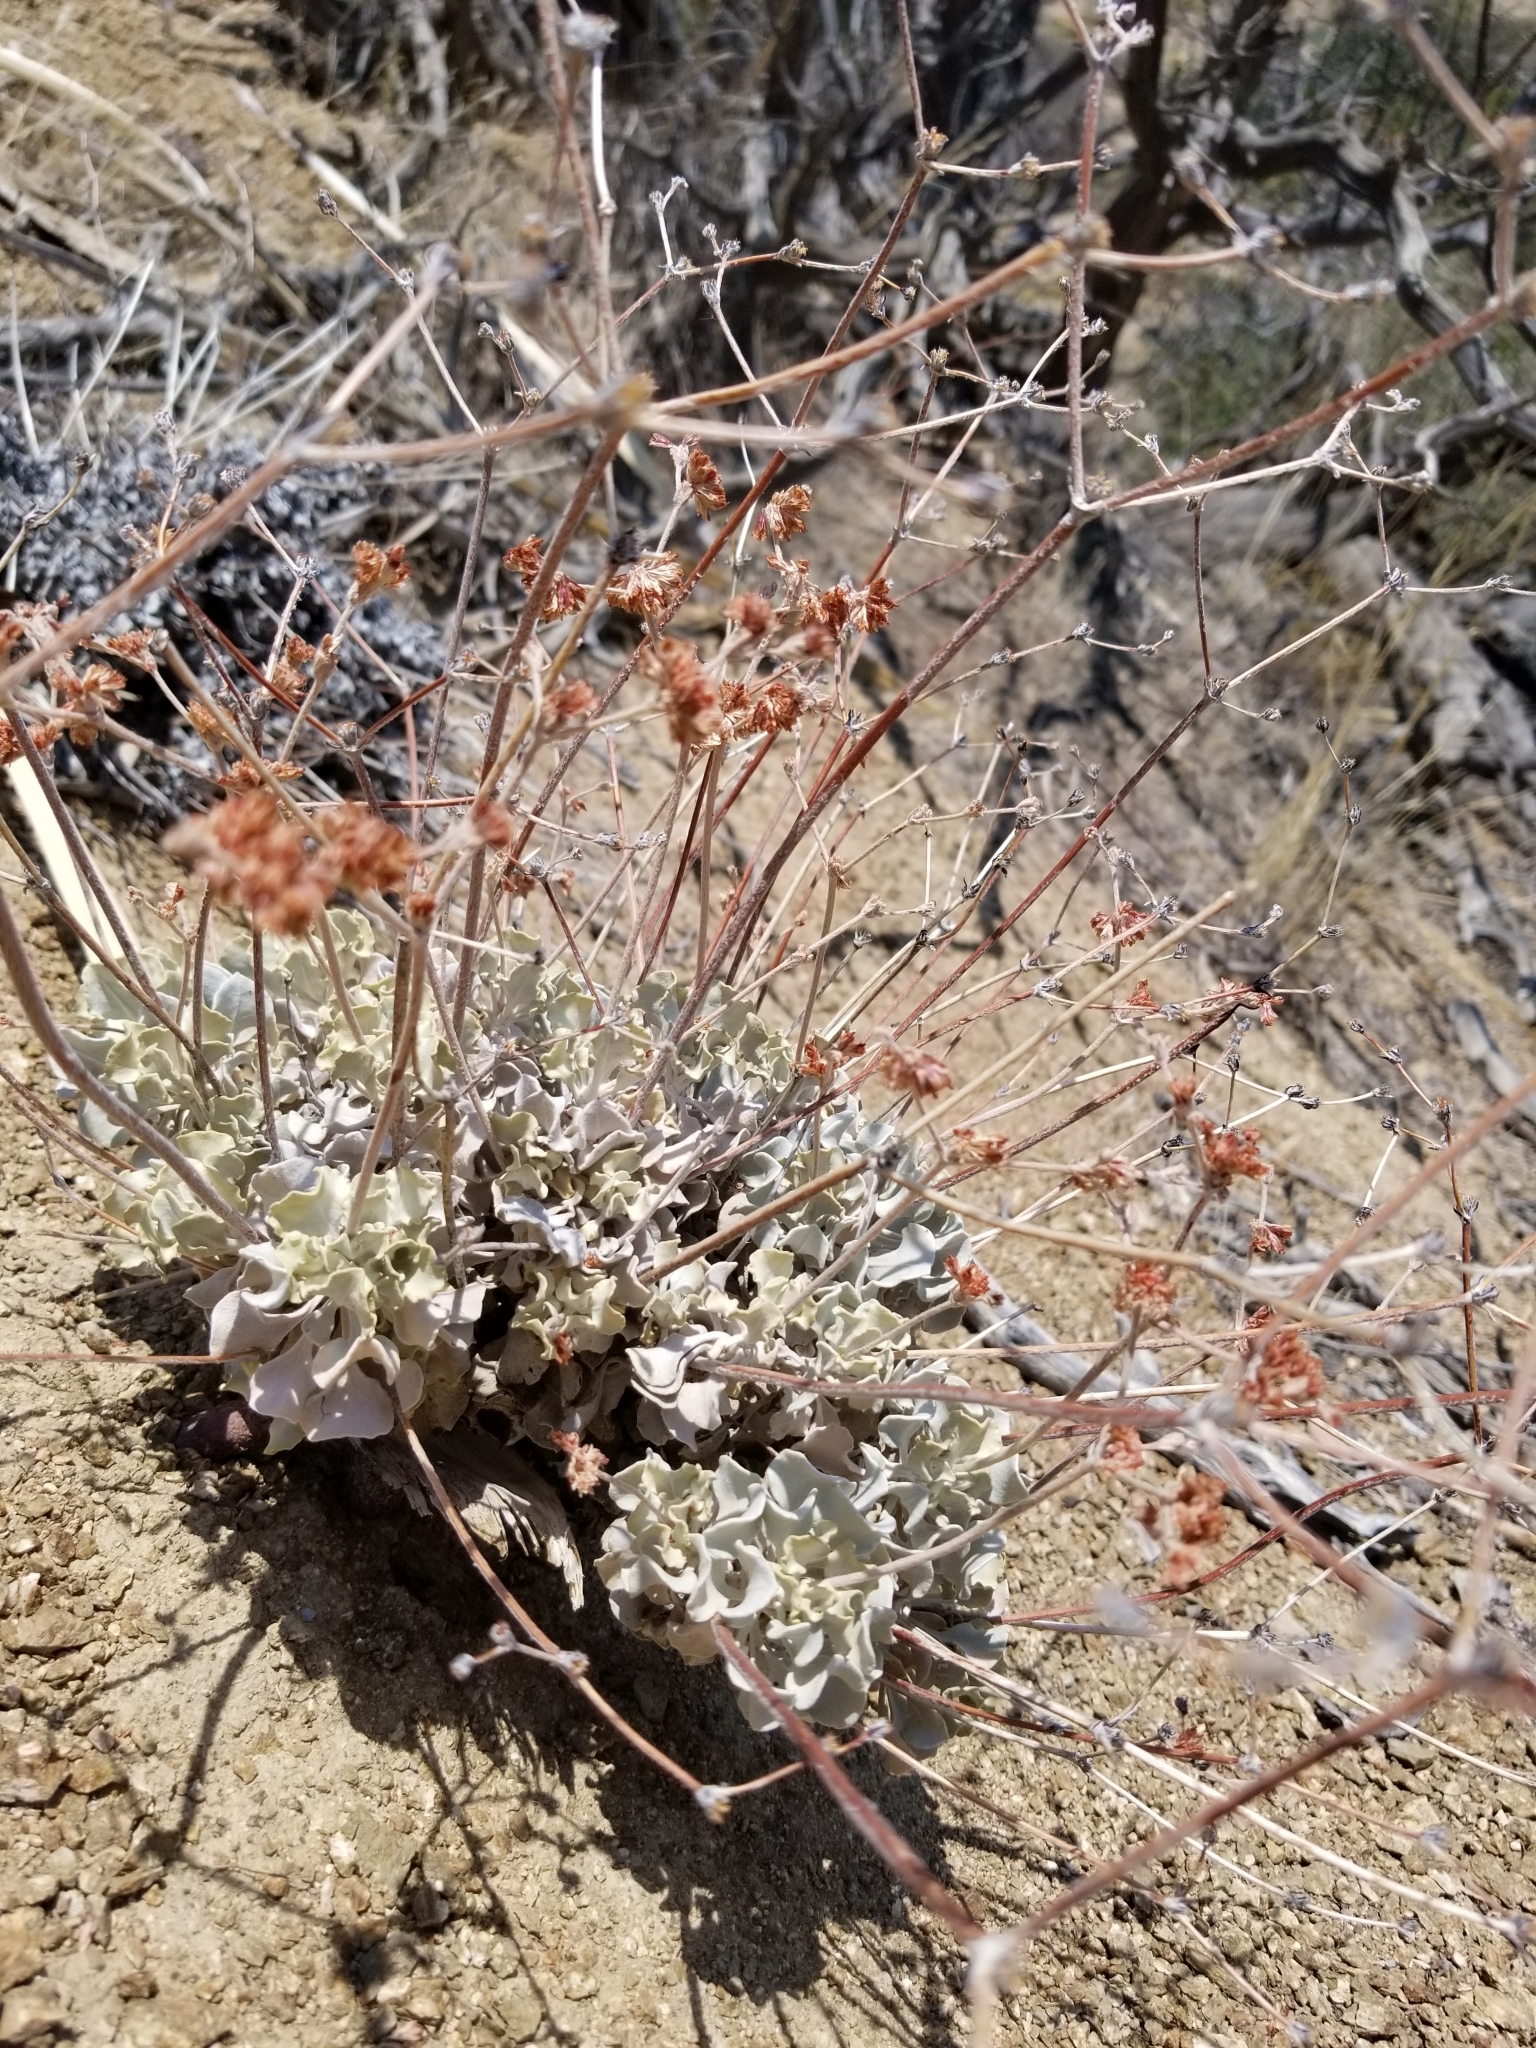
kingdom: Plantae
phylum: Tracheophyta
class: Magnoliopsida
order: Caryophyllales
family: Polygonaceae
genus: Eriogonum
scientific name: Eriogonum saxatile
